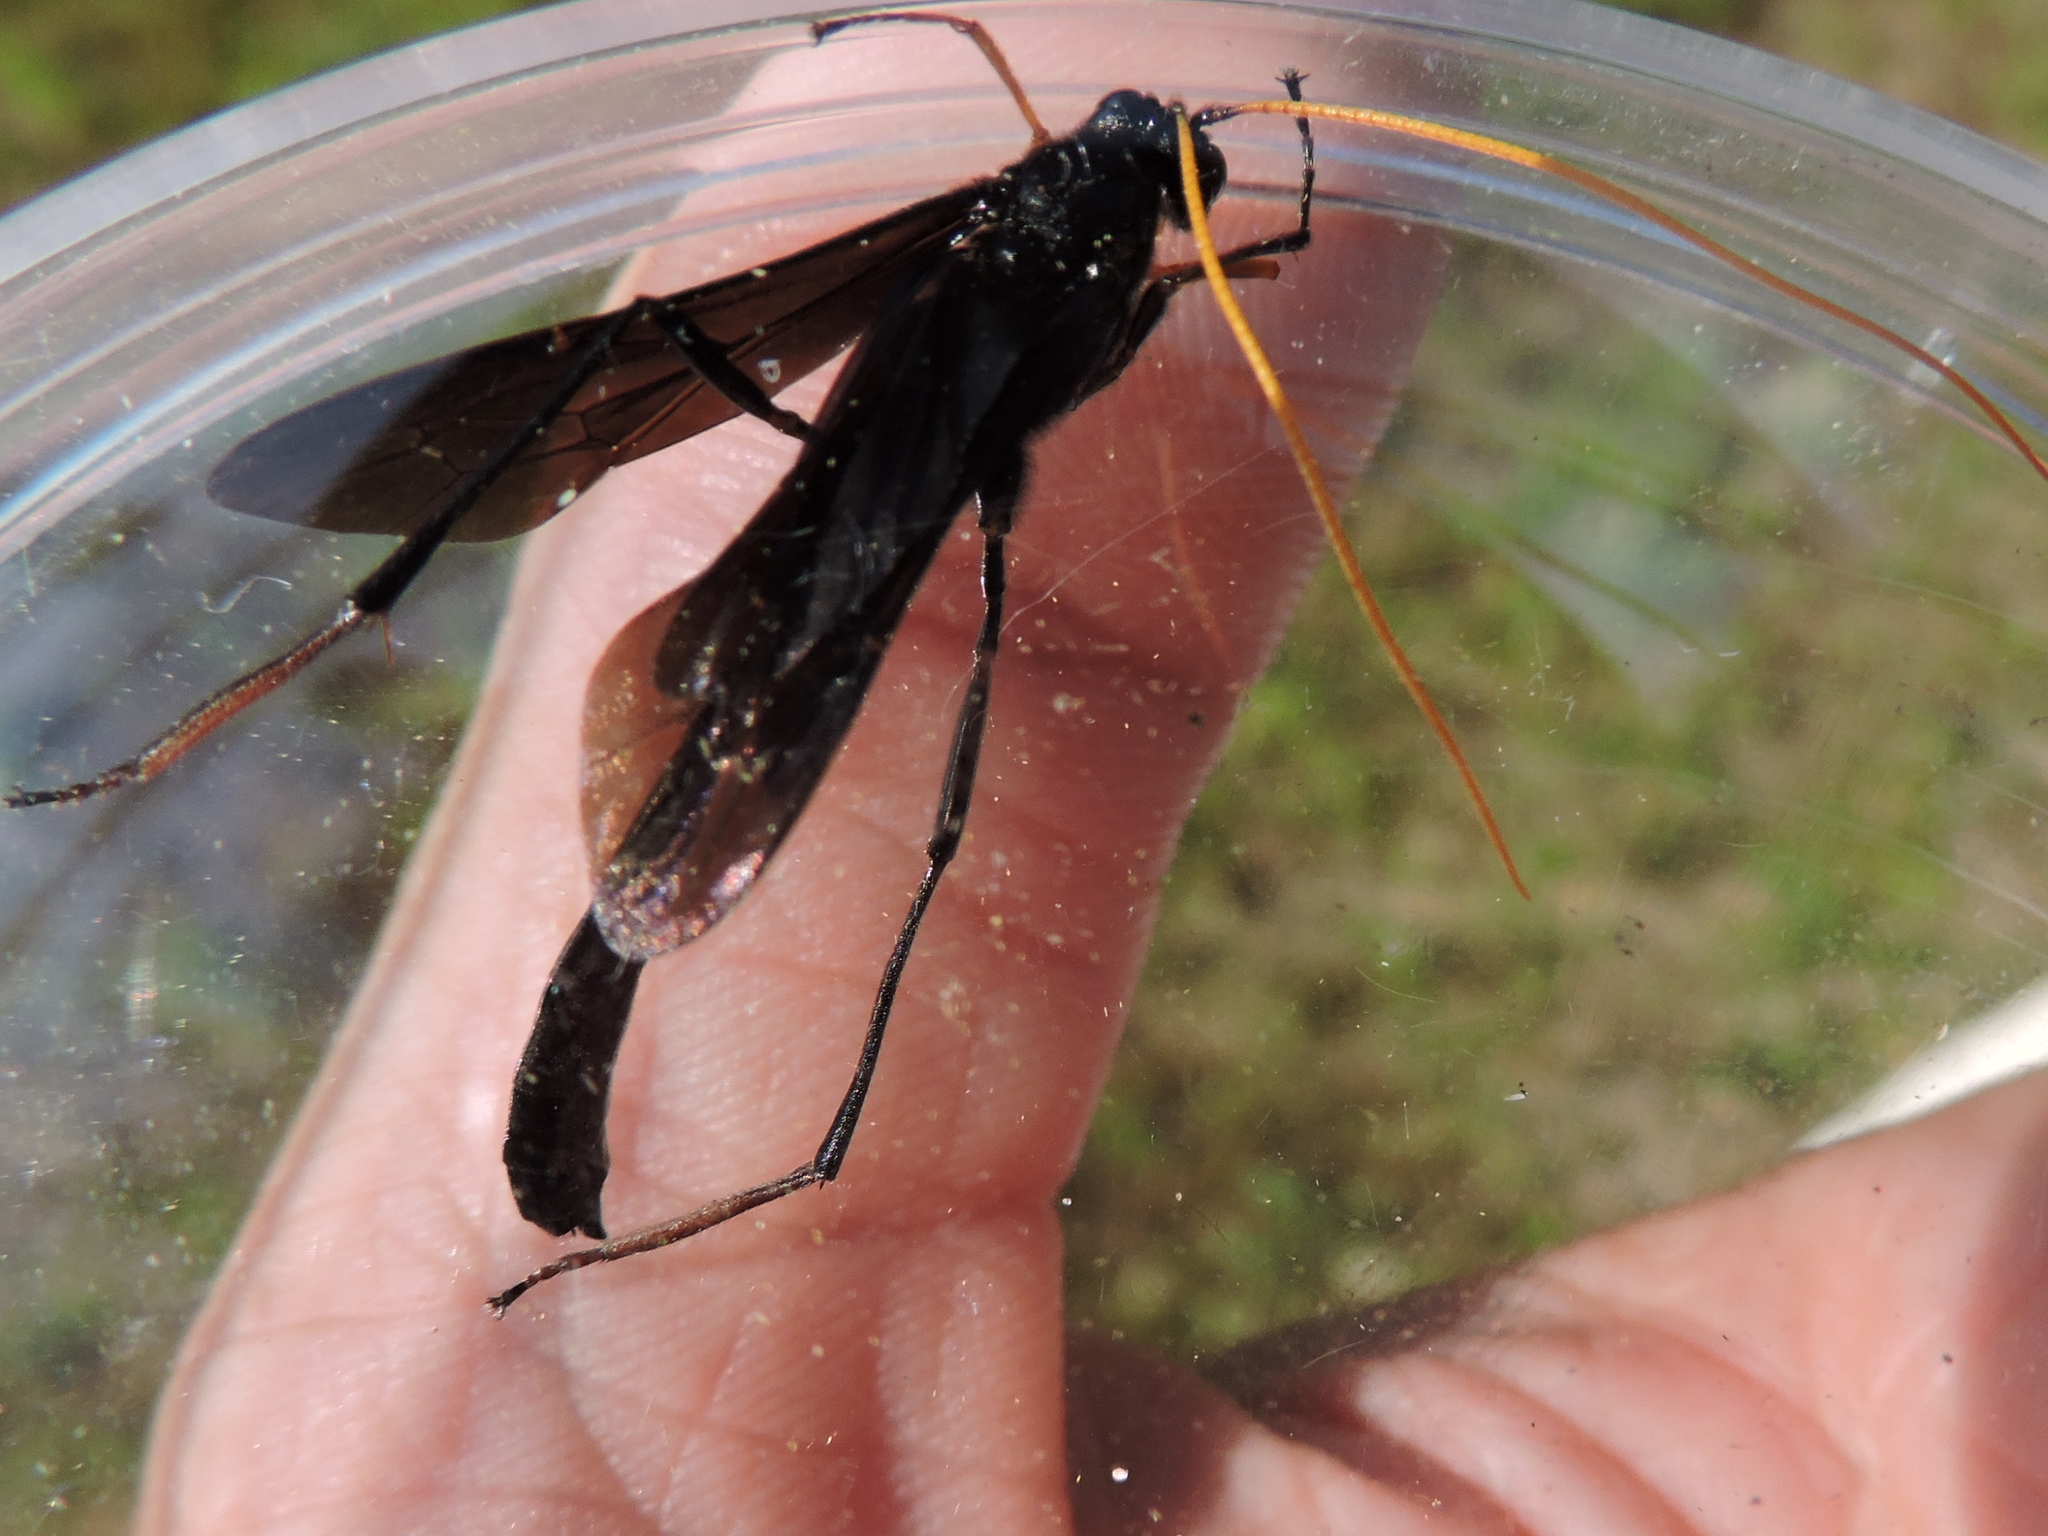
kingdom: Animalia
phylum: Arthropoda
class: Insecta
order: Hymenoptera
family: Ichneumonidae
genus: Heteropelma
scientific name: Heteropelma datanae
